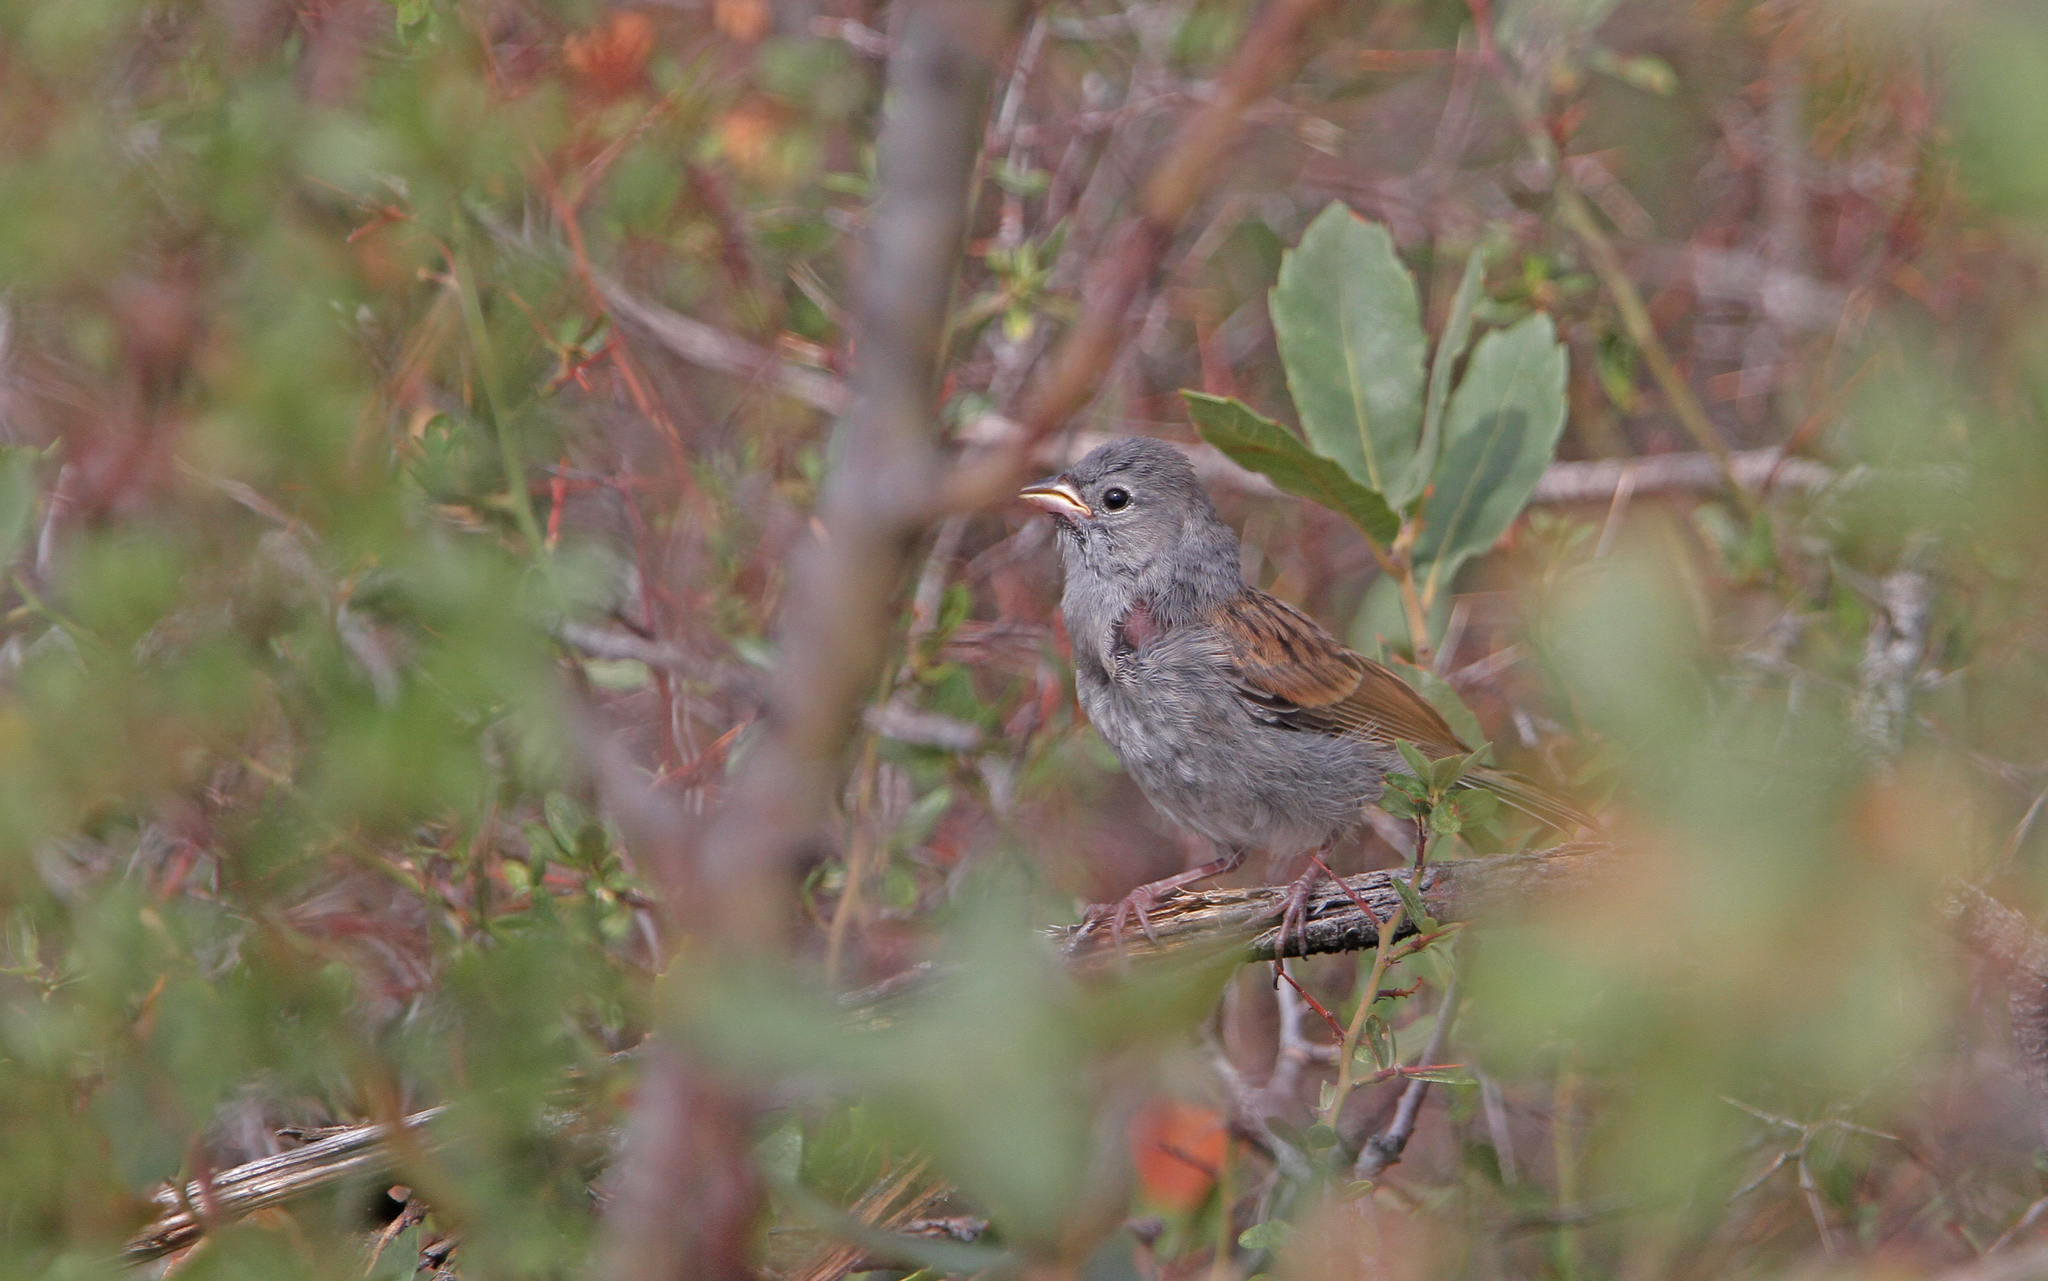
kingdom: Animalia
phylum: Chordata
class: Aves
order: Passeriformes
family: Passerellidae
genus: Spizella
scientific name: Spizella atrogularis
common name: Black-chinned sparrow
